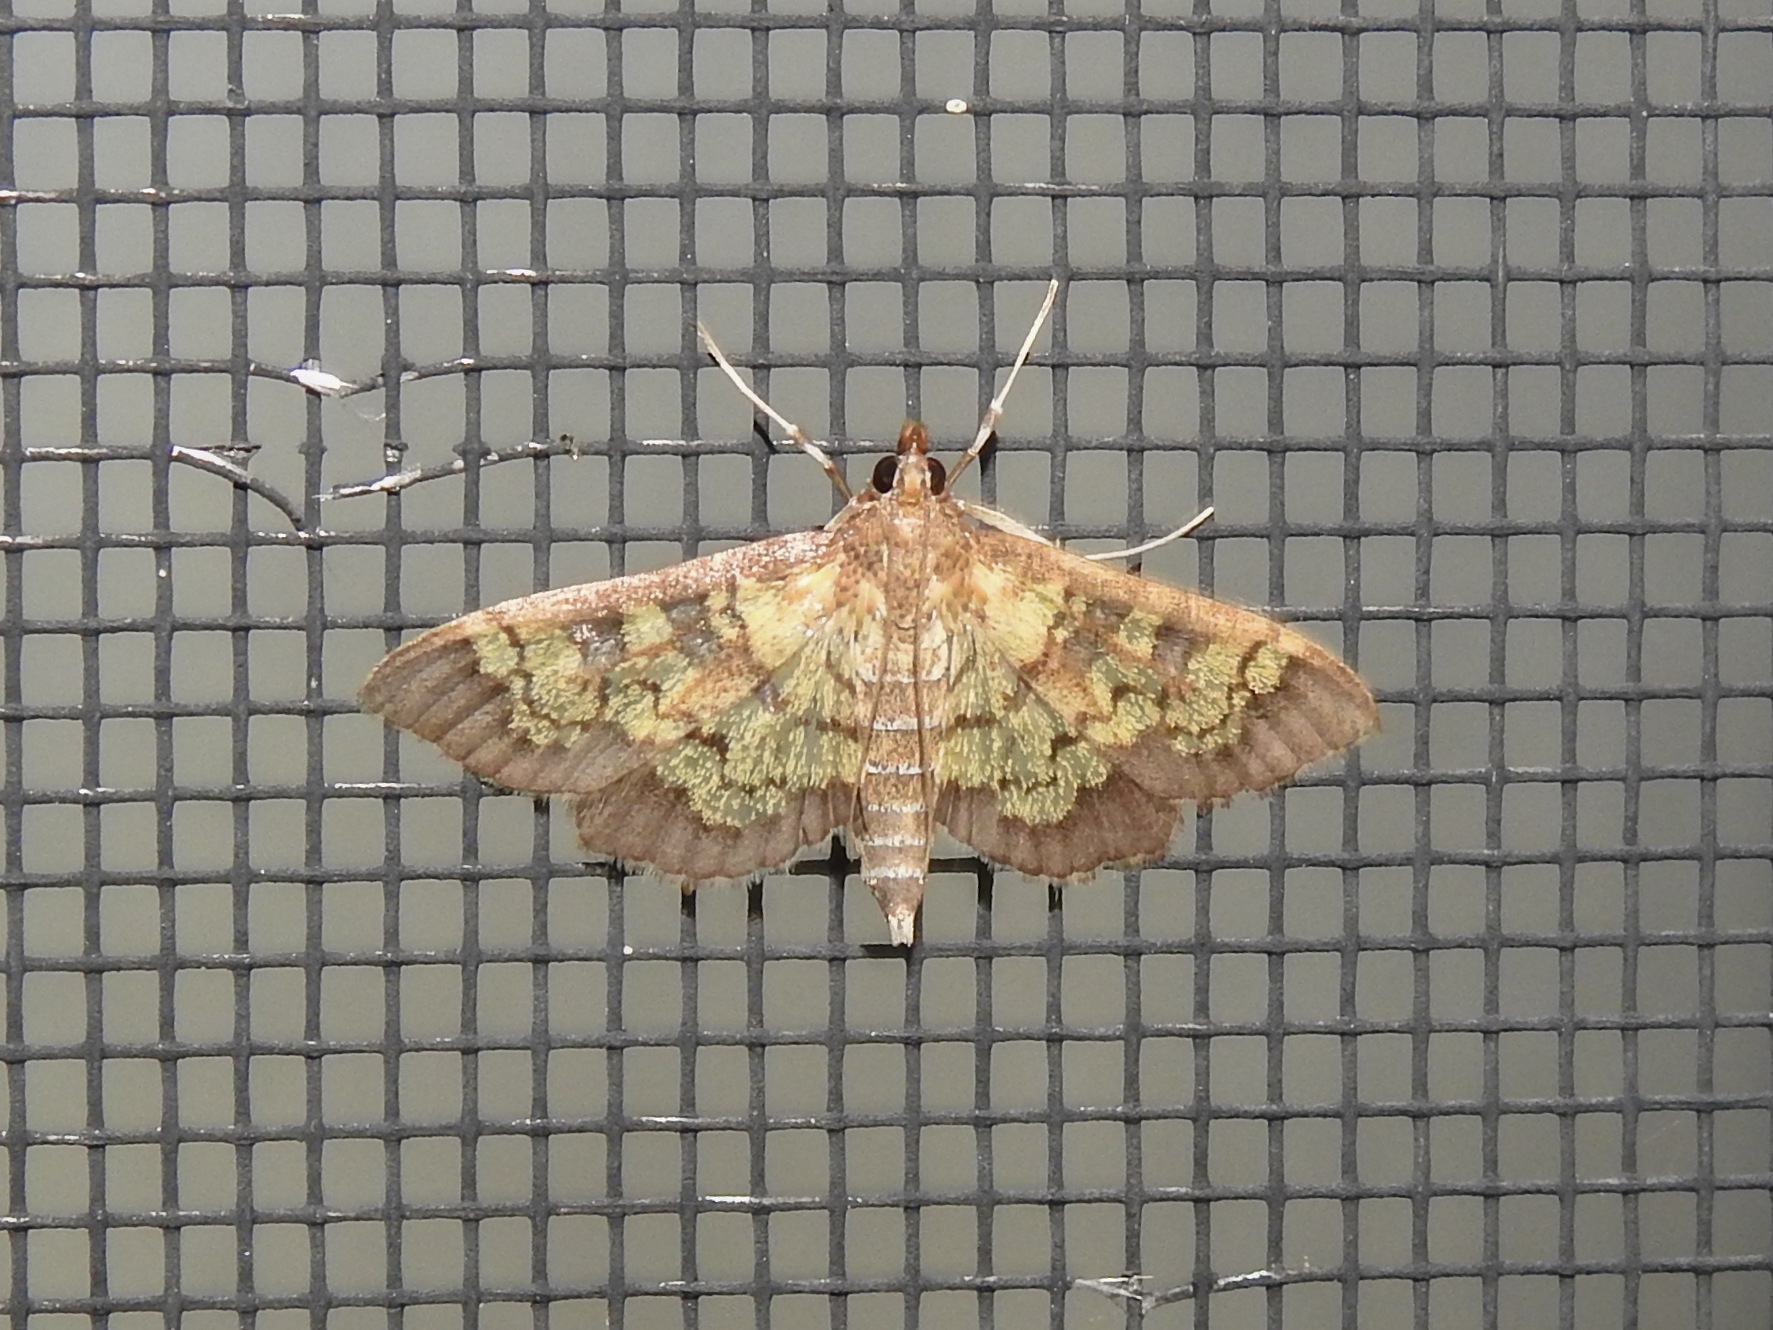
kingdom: Animalia
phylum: Arthropoda
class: Insecta
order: Lepidoptera
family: Crambidae
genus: Epipagis
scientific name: Epipagis adipaloides
